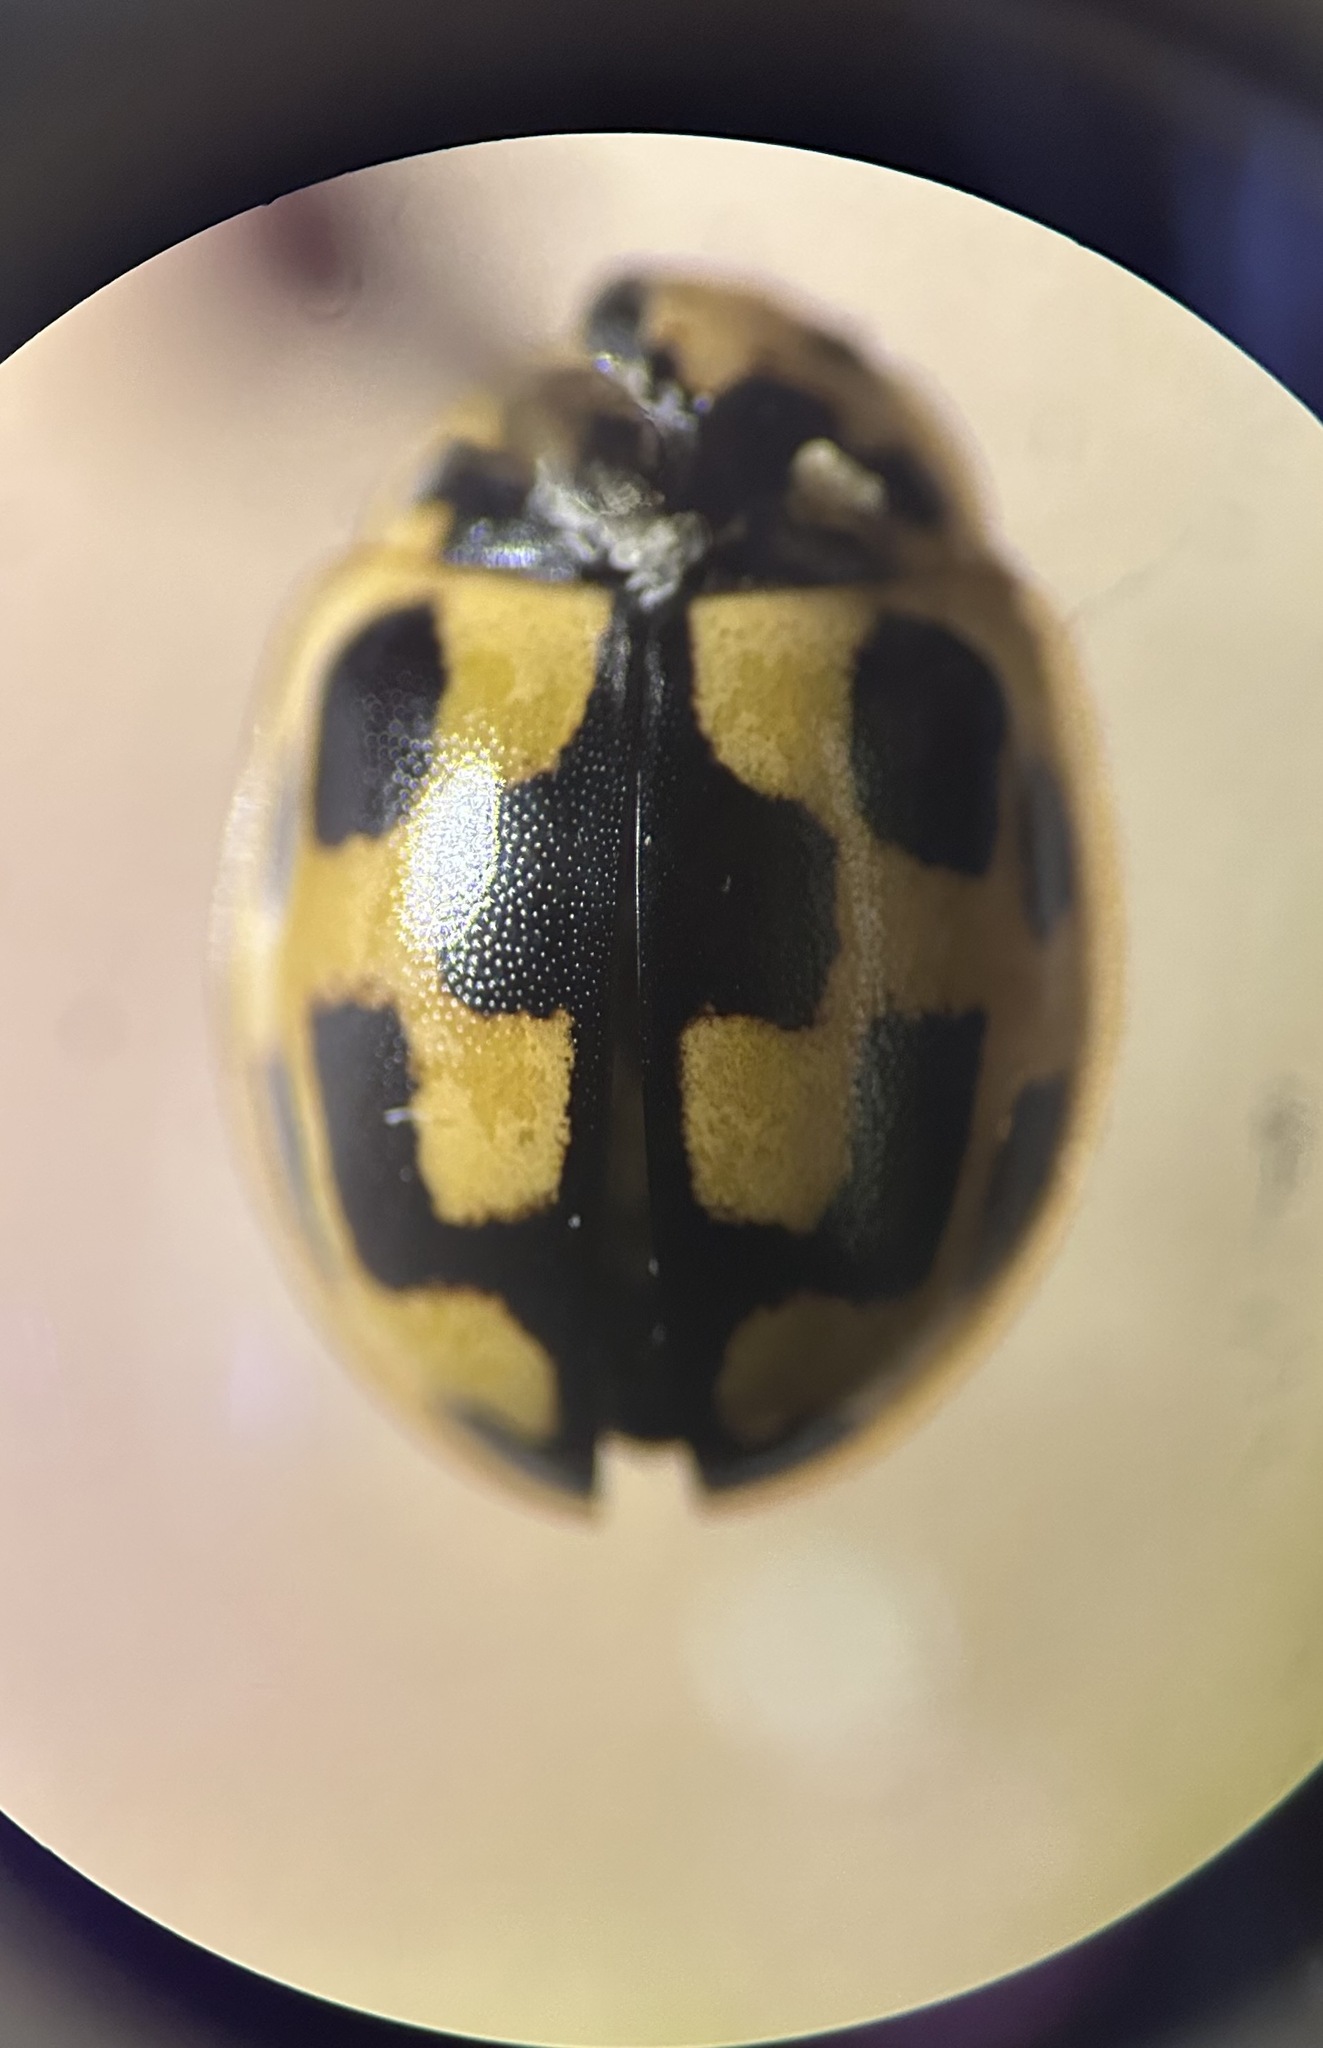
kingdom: Animalia
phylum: Arthropoda
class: Insecta
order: Coleoptera
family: Coccinellidae
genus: Propylaea
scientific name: Propylaea quatuordecimpunctata
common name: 14-spotted ladybird beetle
